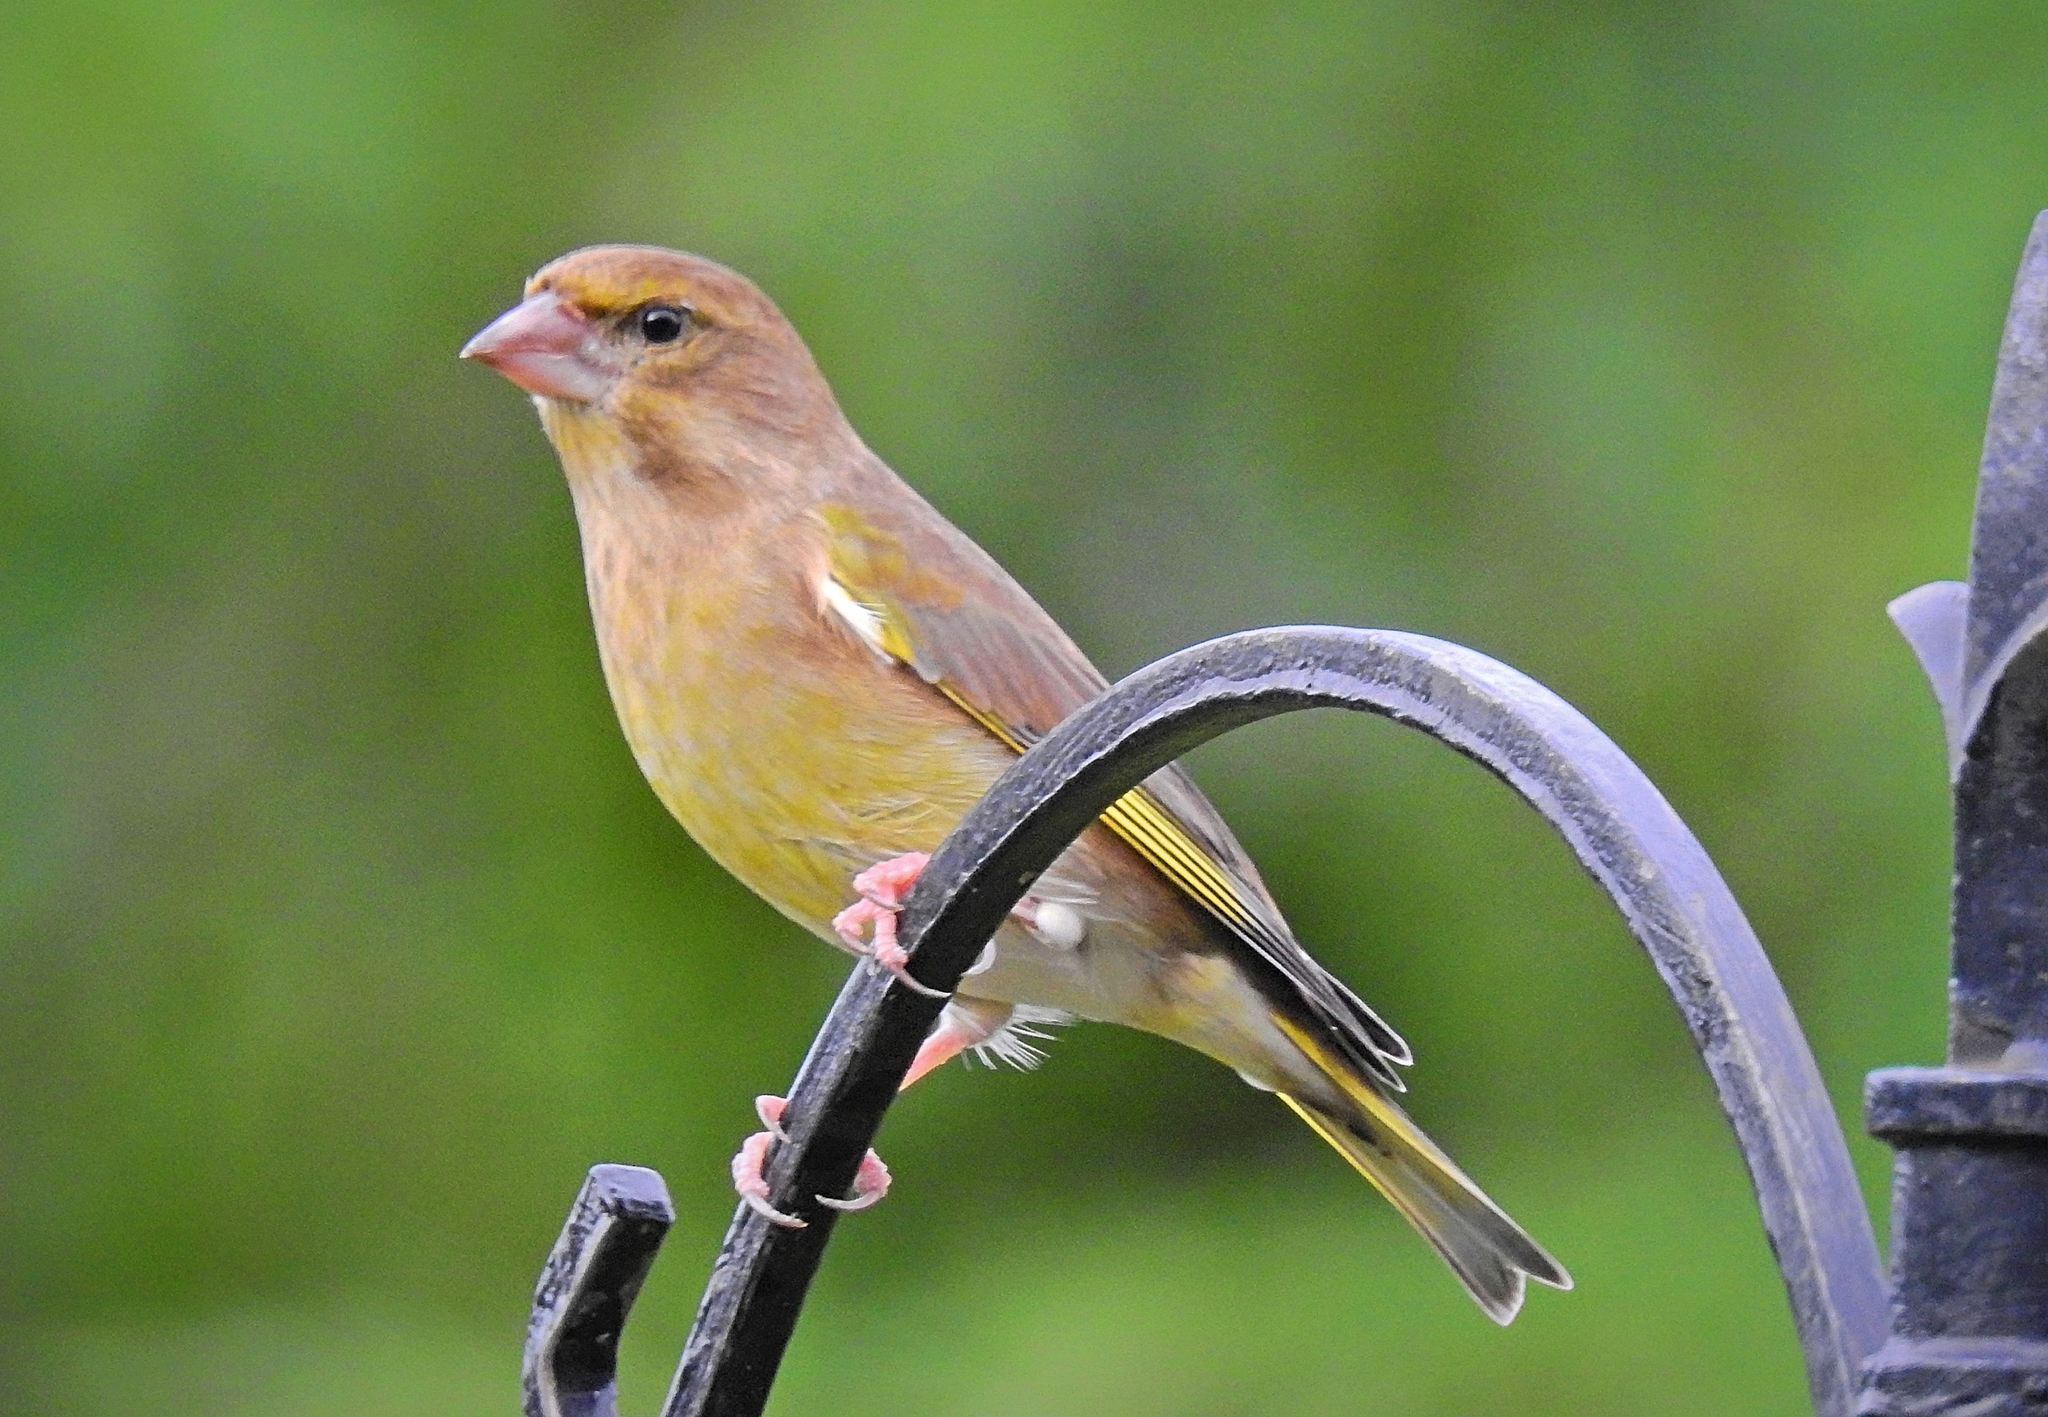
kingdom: Plantae
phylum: Tracheophyta
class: Liliopsida
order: Poales
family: Poaceae
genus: Chloris
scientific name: Chloris chloris
